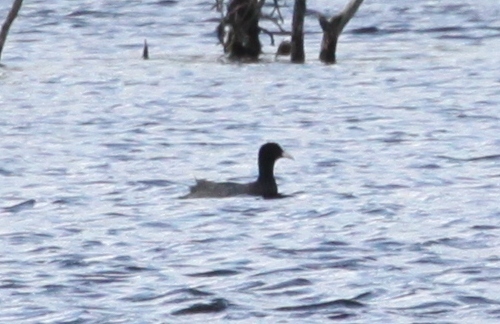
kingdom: Animalia
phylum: Chordata
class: Aves
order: Gruiformes
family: Rallidae
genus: Fulica
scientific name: Fulica atra
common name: Eurasian coot
